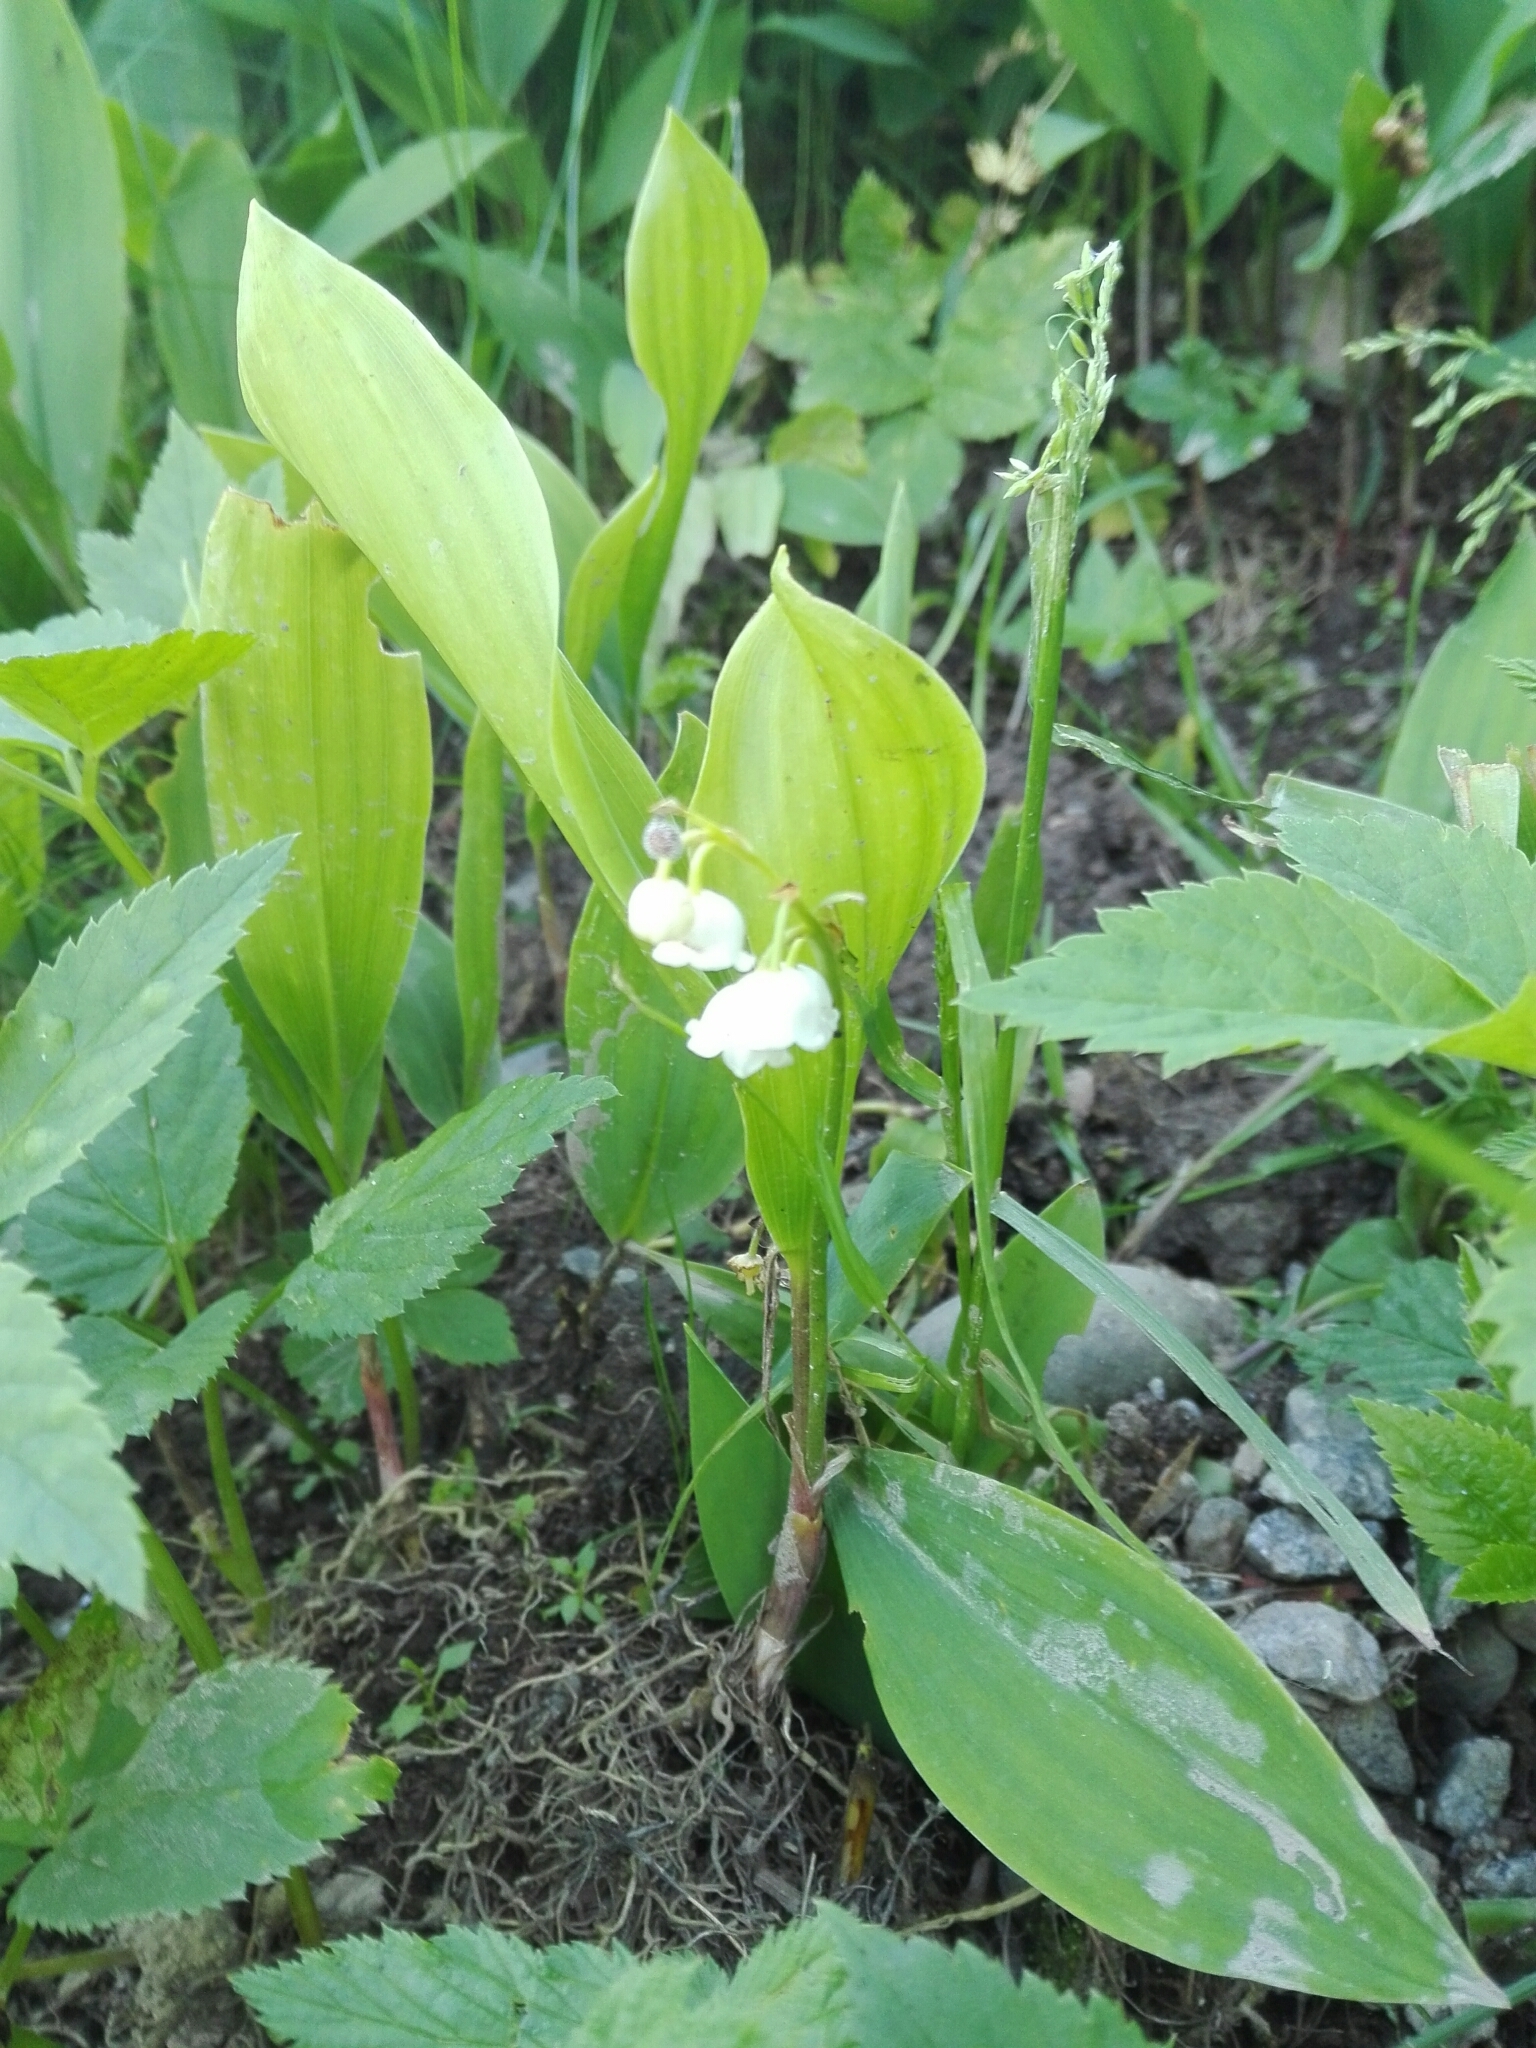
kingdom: Plantae
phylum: Tracheophyta
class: Liliopsida
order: Asparagales
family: Asparagaceae
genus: Convallaria
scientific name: Convallaria majalis
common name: Lily-of-the-valley
